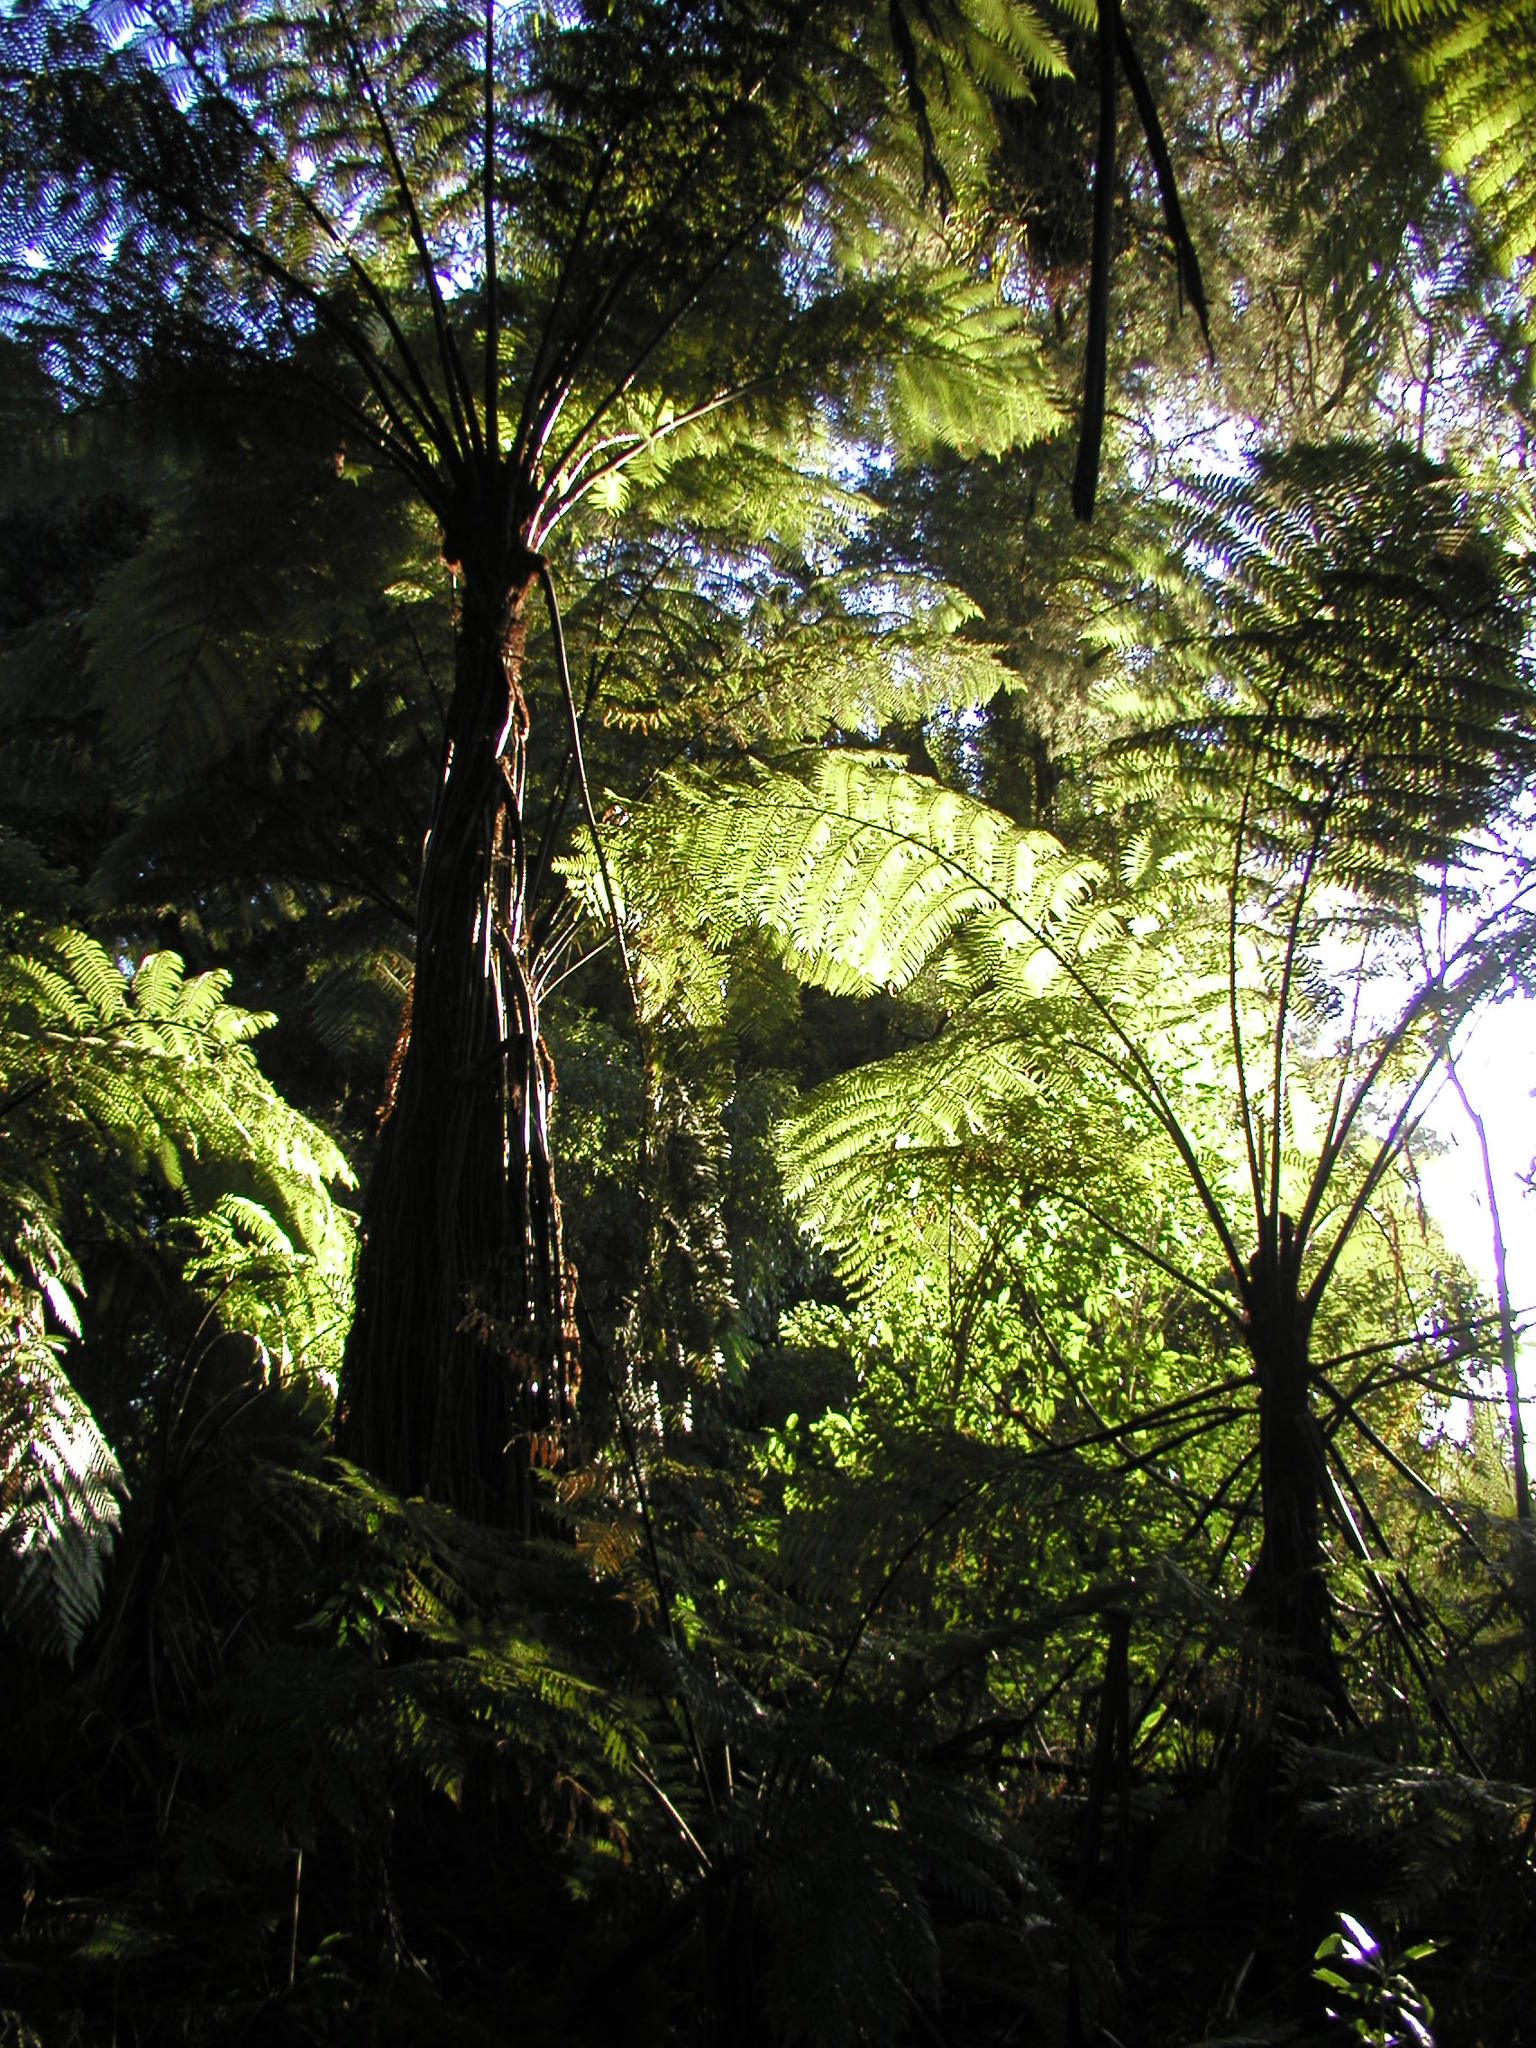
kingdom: Plantae
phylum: Tracheophyta
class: Polypodiopsida
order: Cyatheales
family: Cyatheaceae
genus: Sphaeropteris
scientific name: Sphaeropteris medullaris
